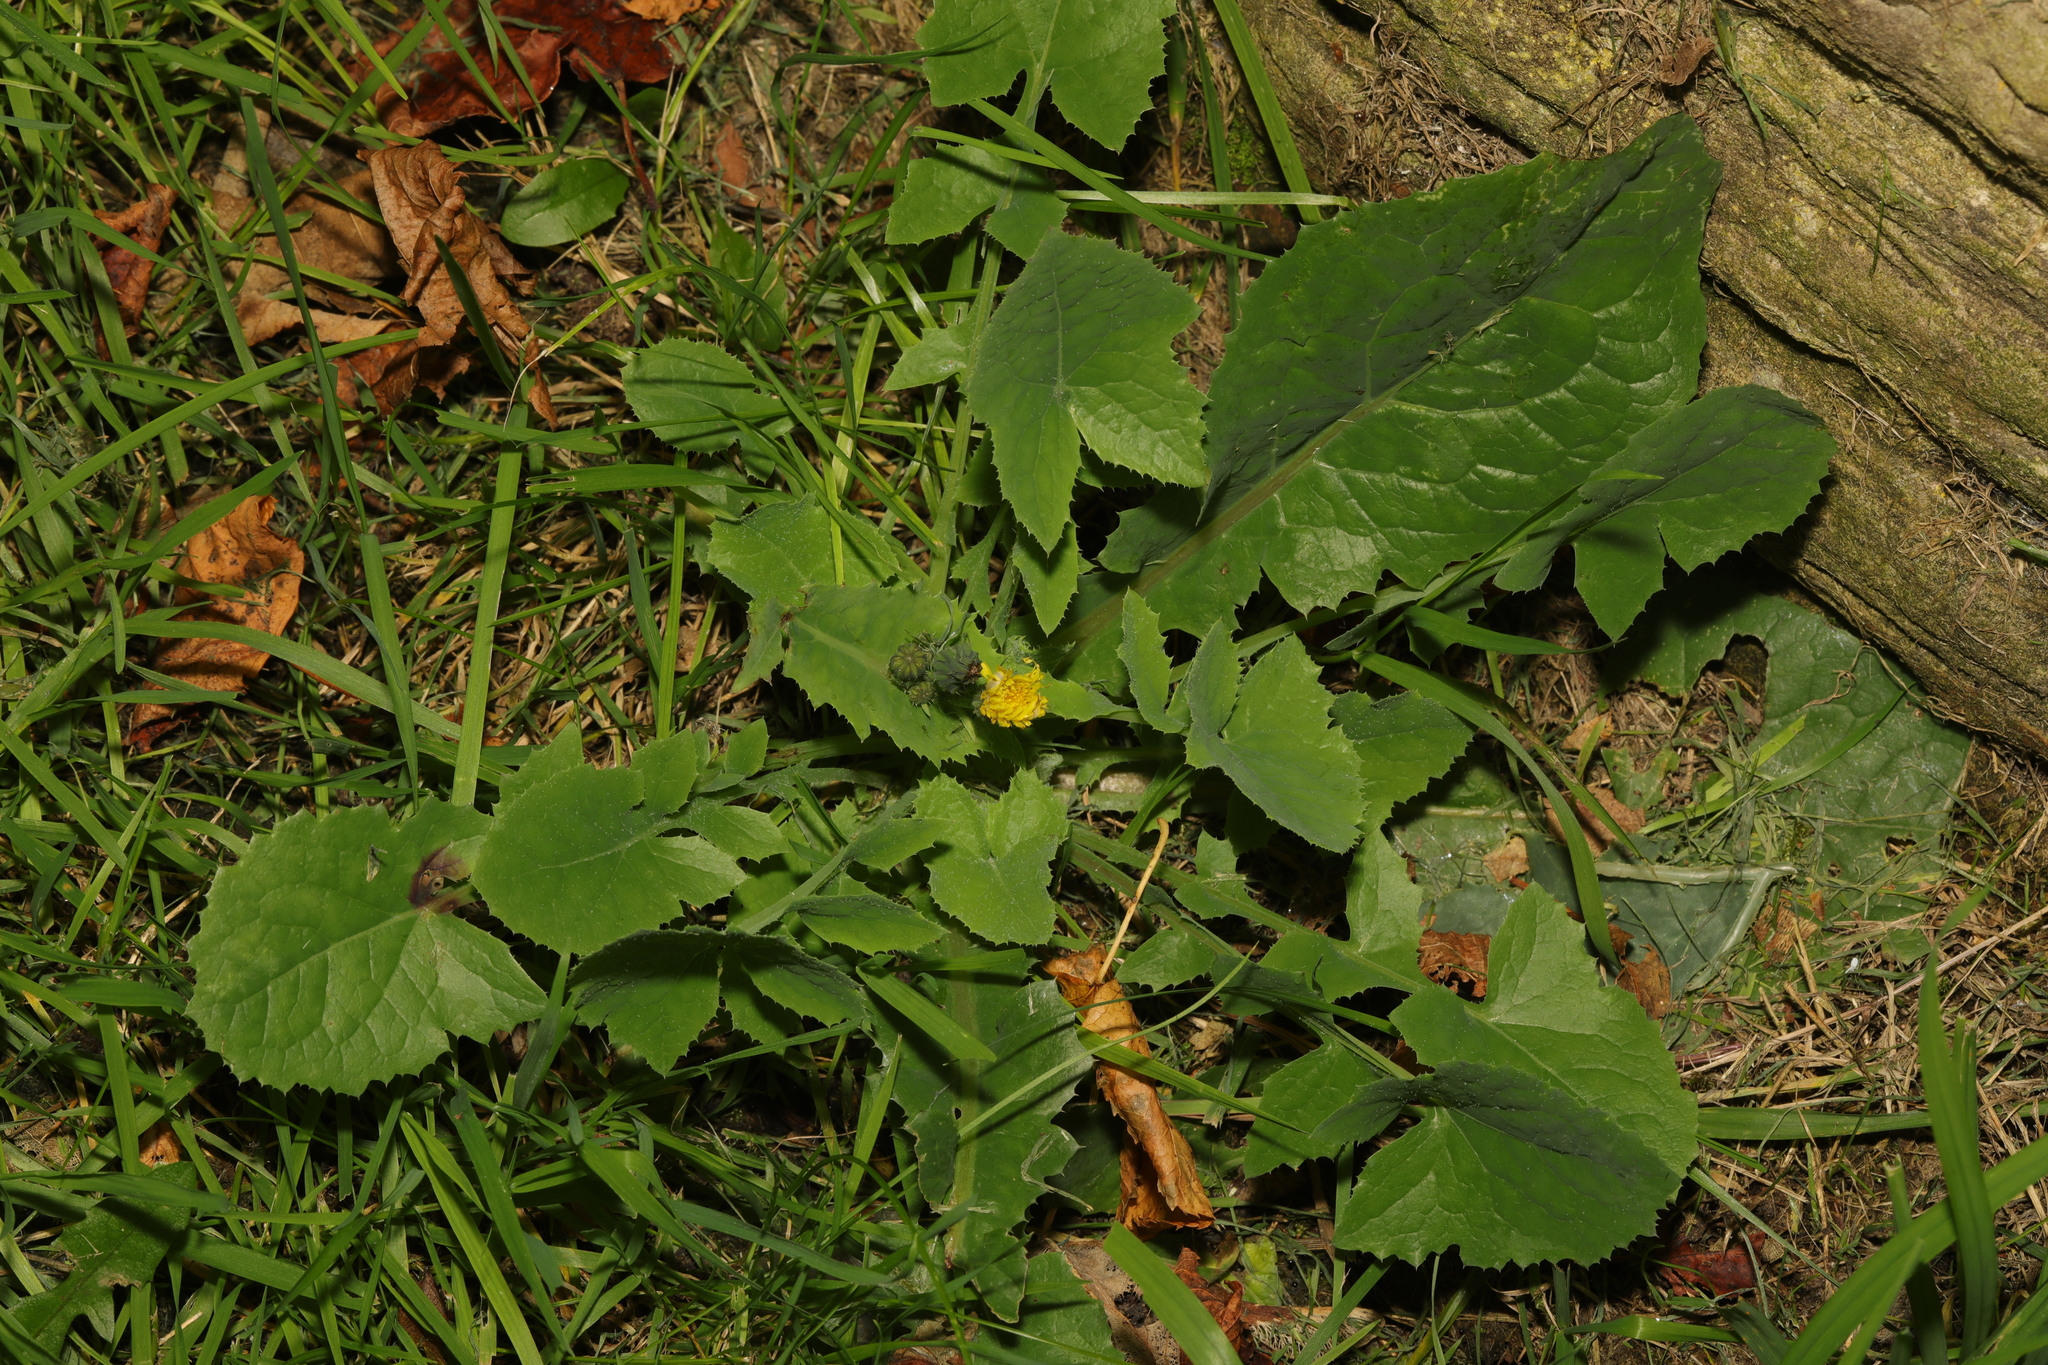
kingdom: Plantae
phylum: Tracheophyta
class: Magnoliopsida
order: Asterales
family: Asteraceae
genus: Sonchus
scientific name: Sonchus oleraceus
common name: Common sowthistle
